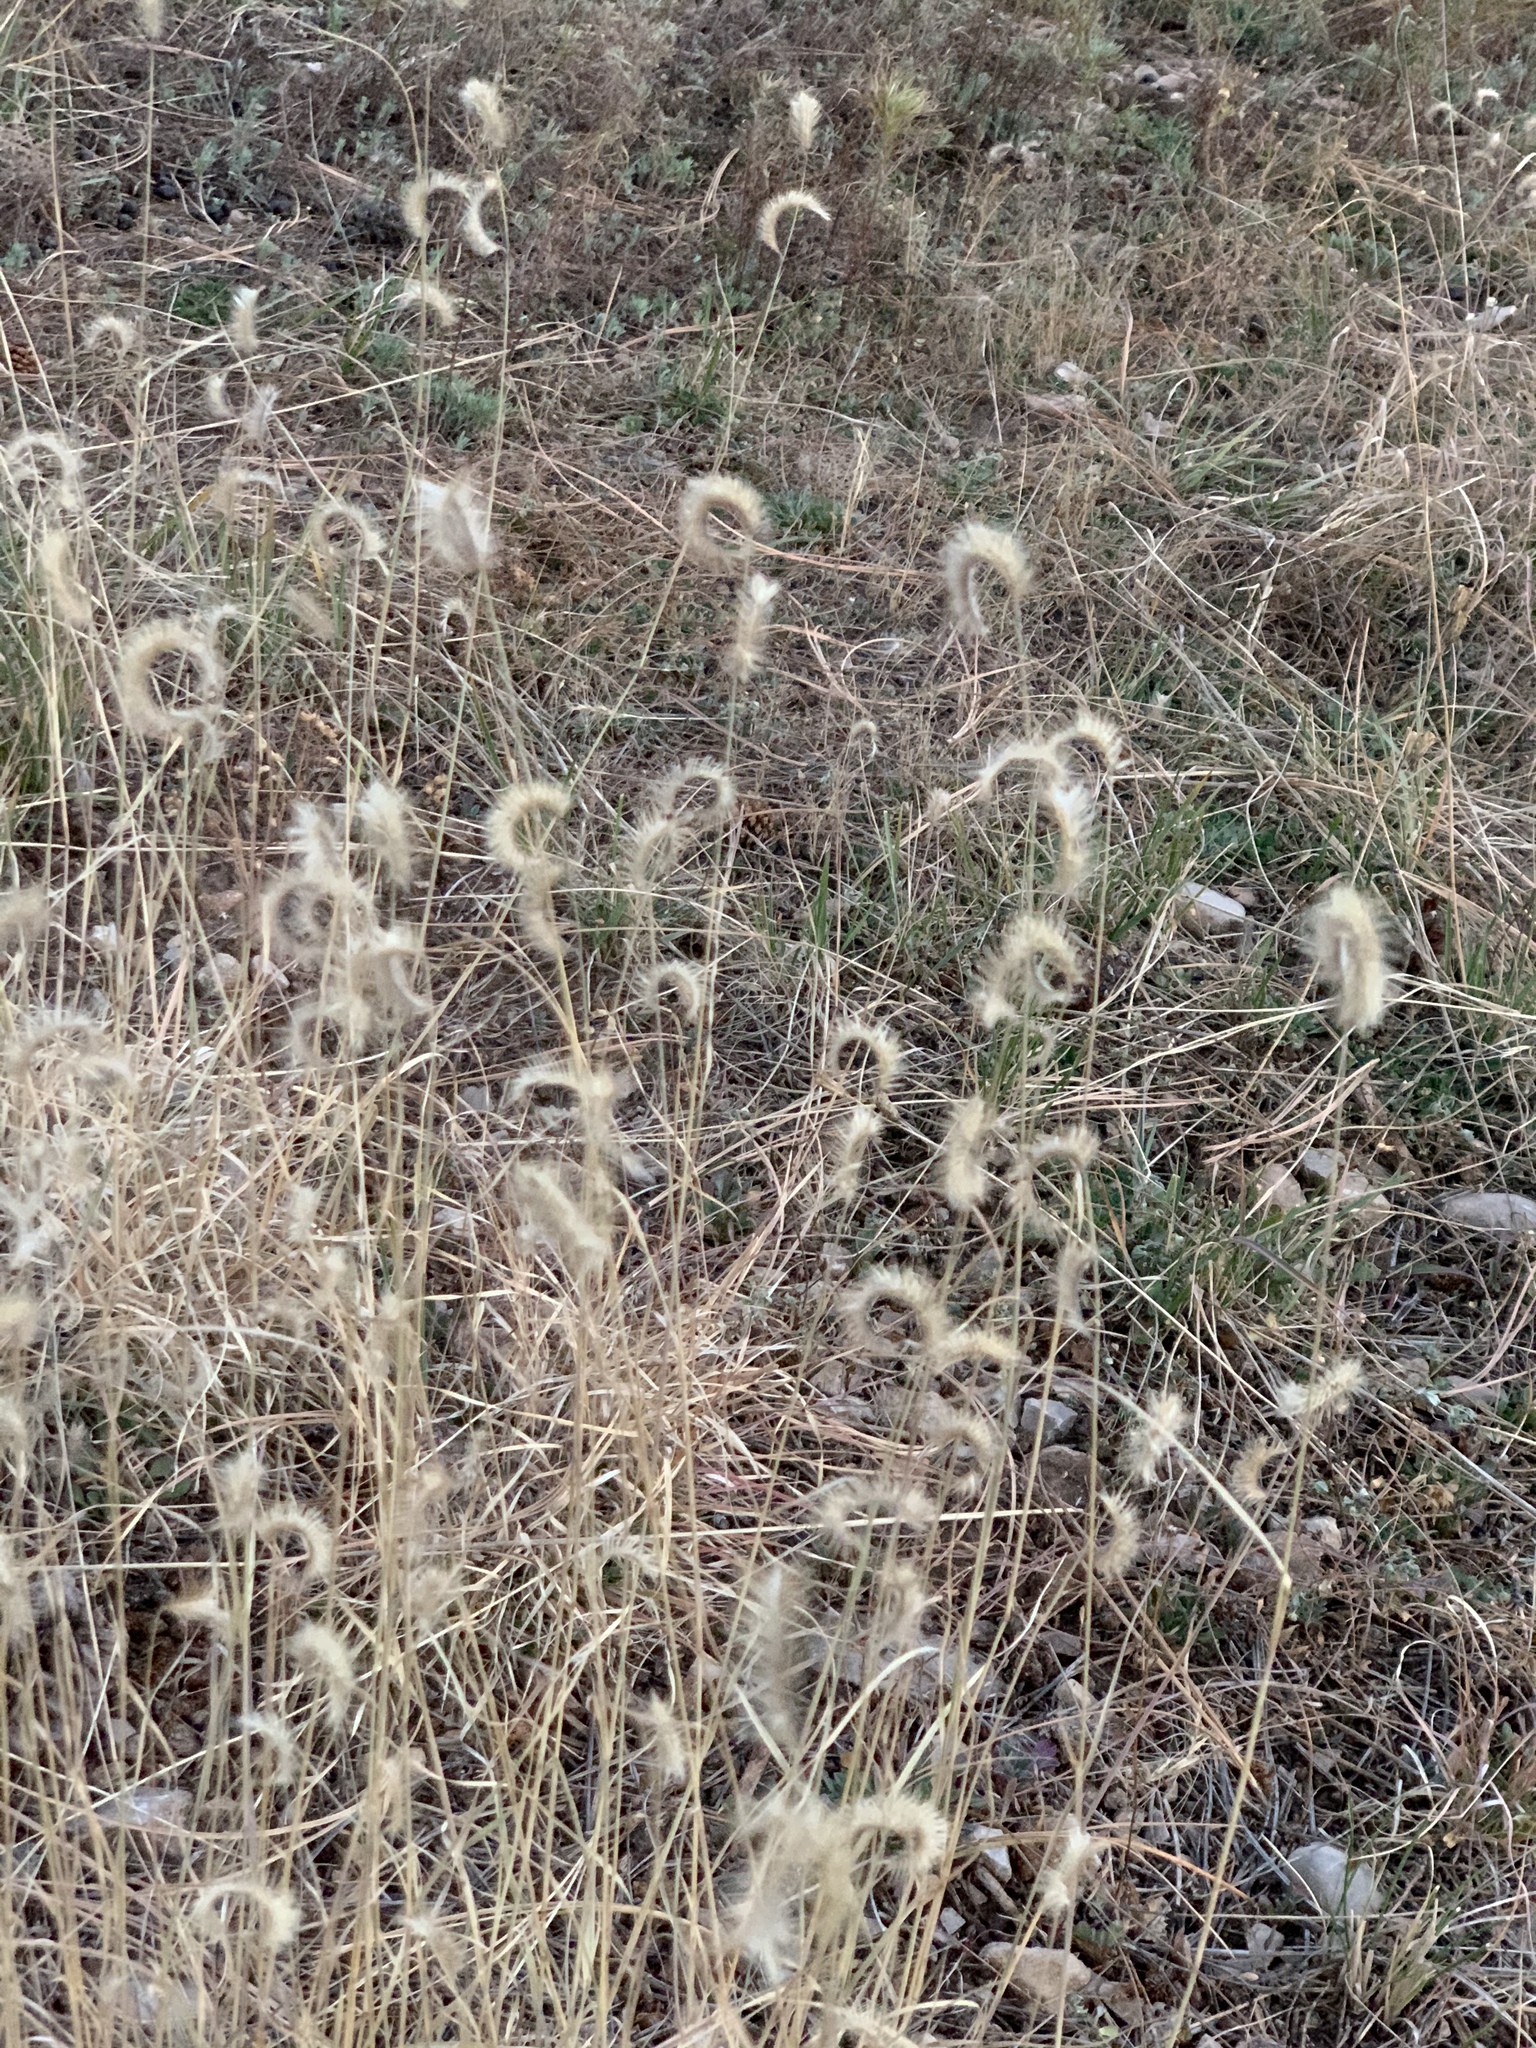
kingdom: Plantae
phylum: Tracheophyta
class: Liliopsida
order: Poales
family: Poaceae
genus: Bouteloua
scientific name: Bouteloua gracilis
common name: Blue grama
